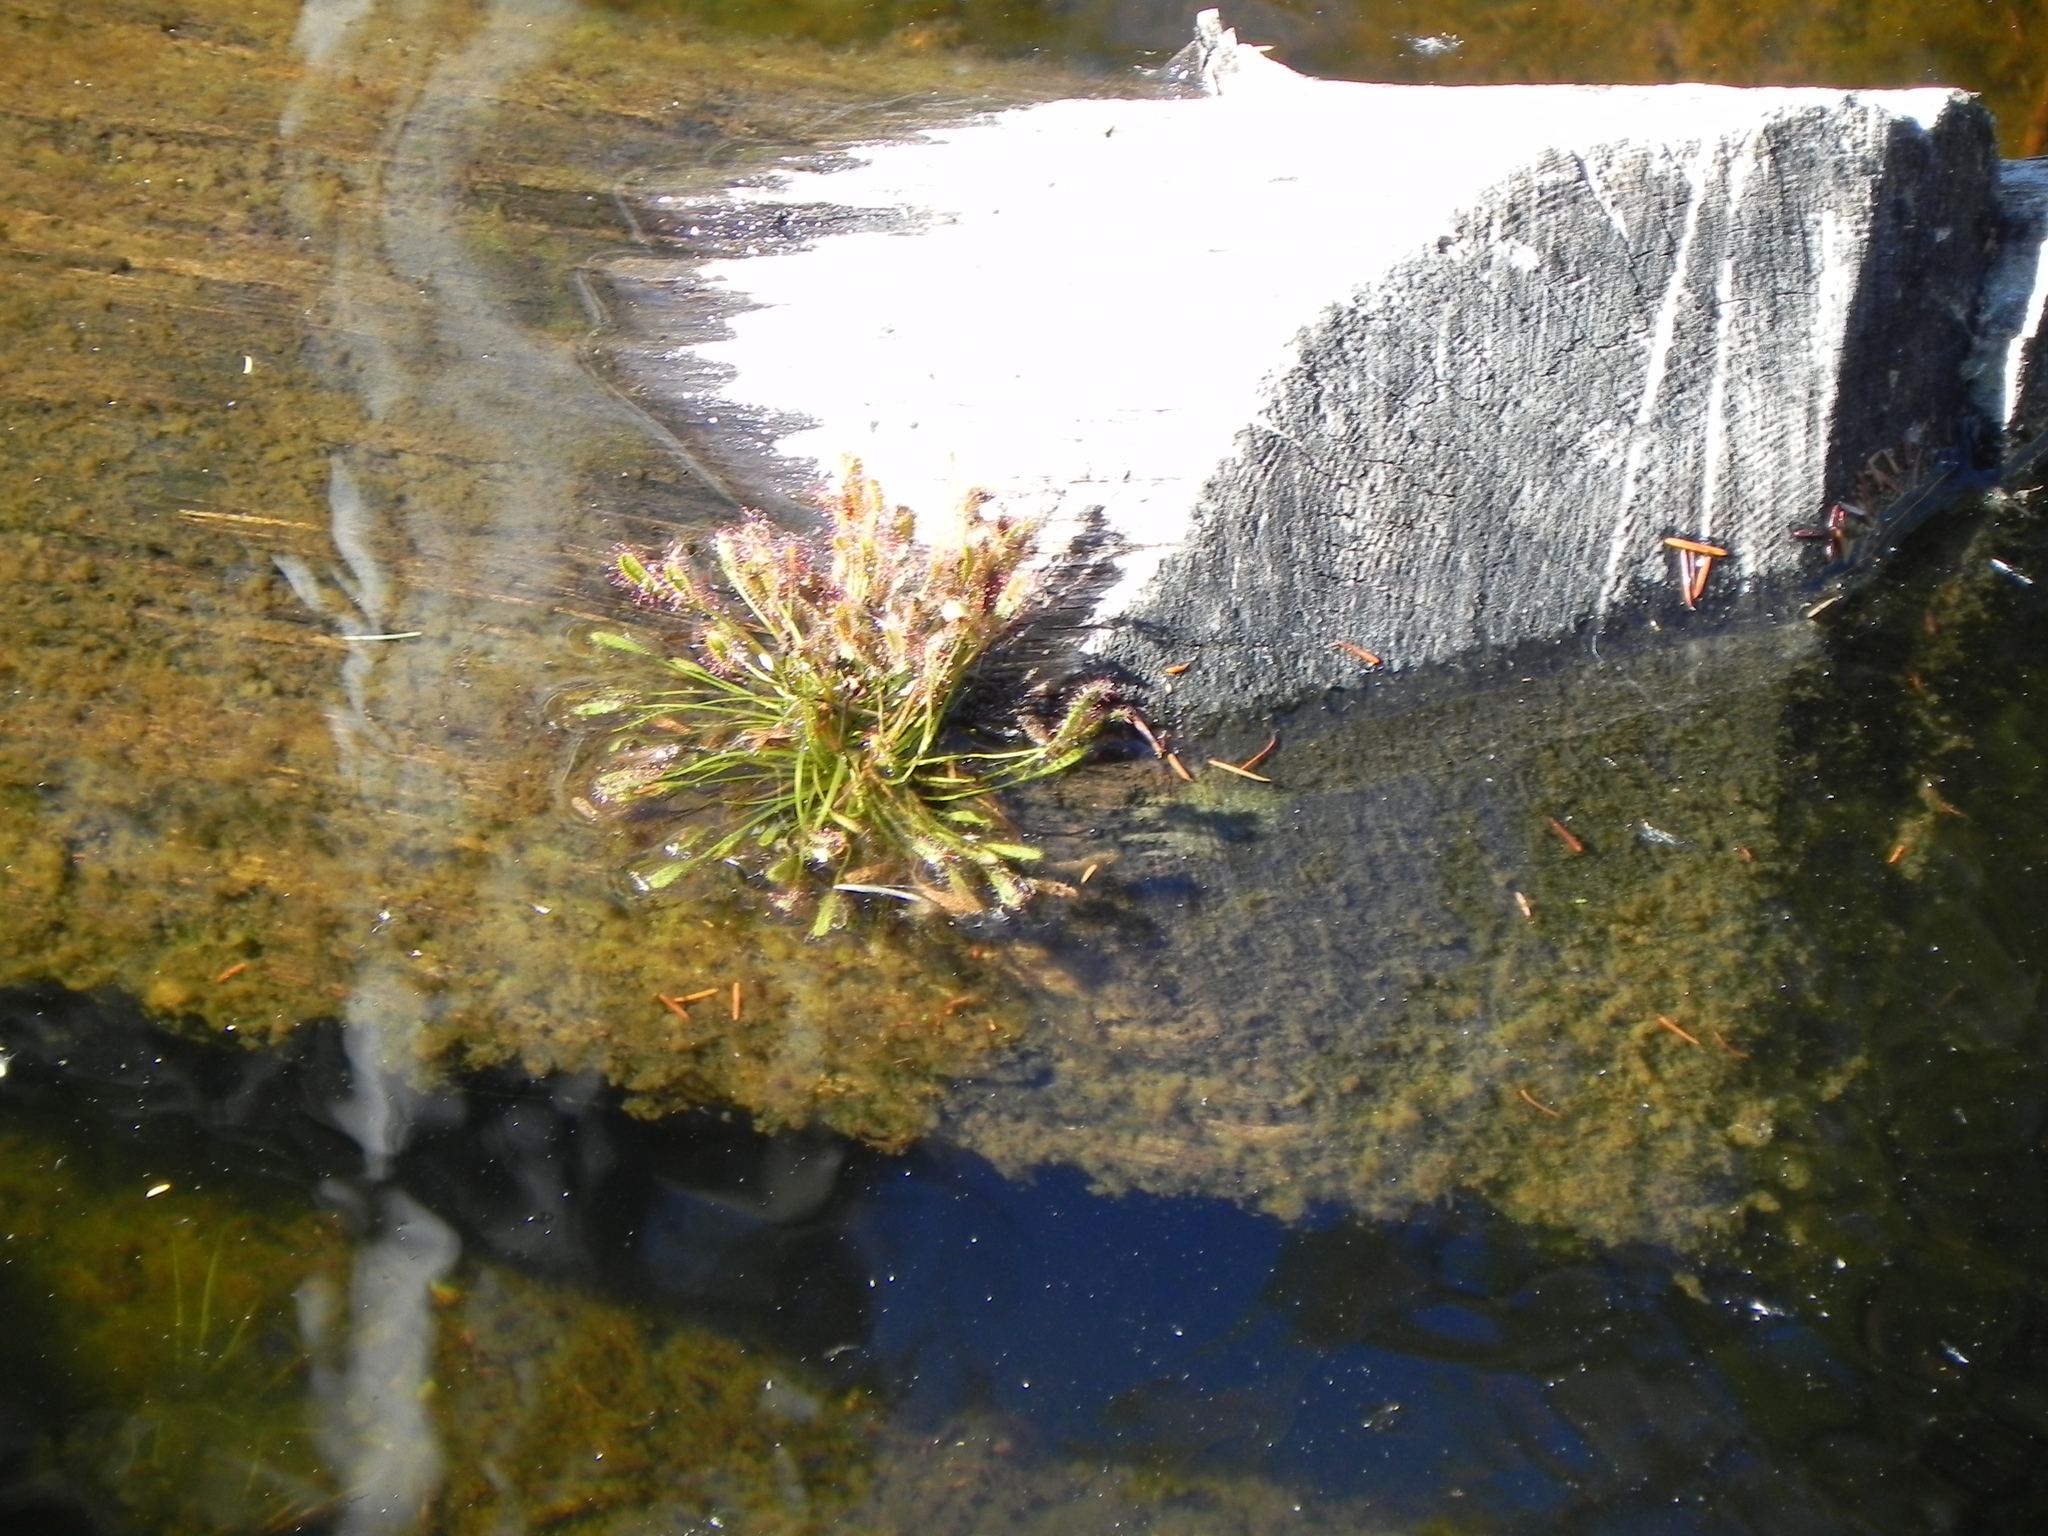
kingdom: Plantae
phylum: Tracheophyta
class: Magnoliopsida
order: Caryophyllales
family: Droseraceae
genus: Drosera
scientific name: Drosera rotundifolia
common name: Round-leaved sundew
